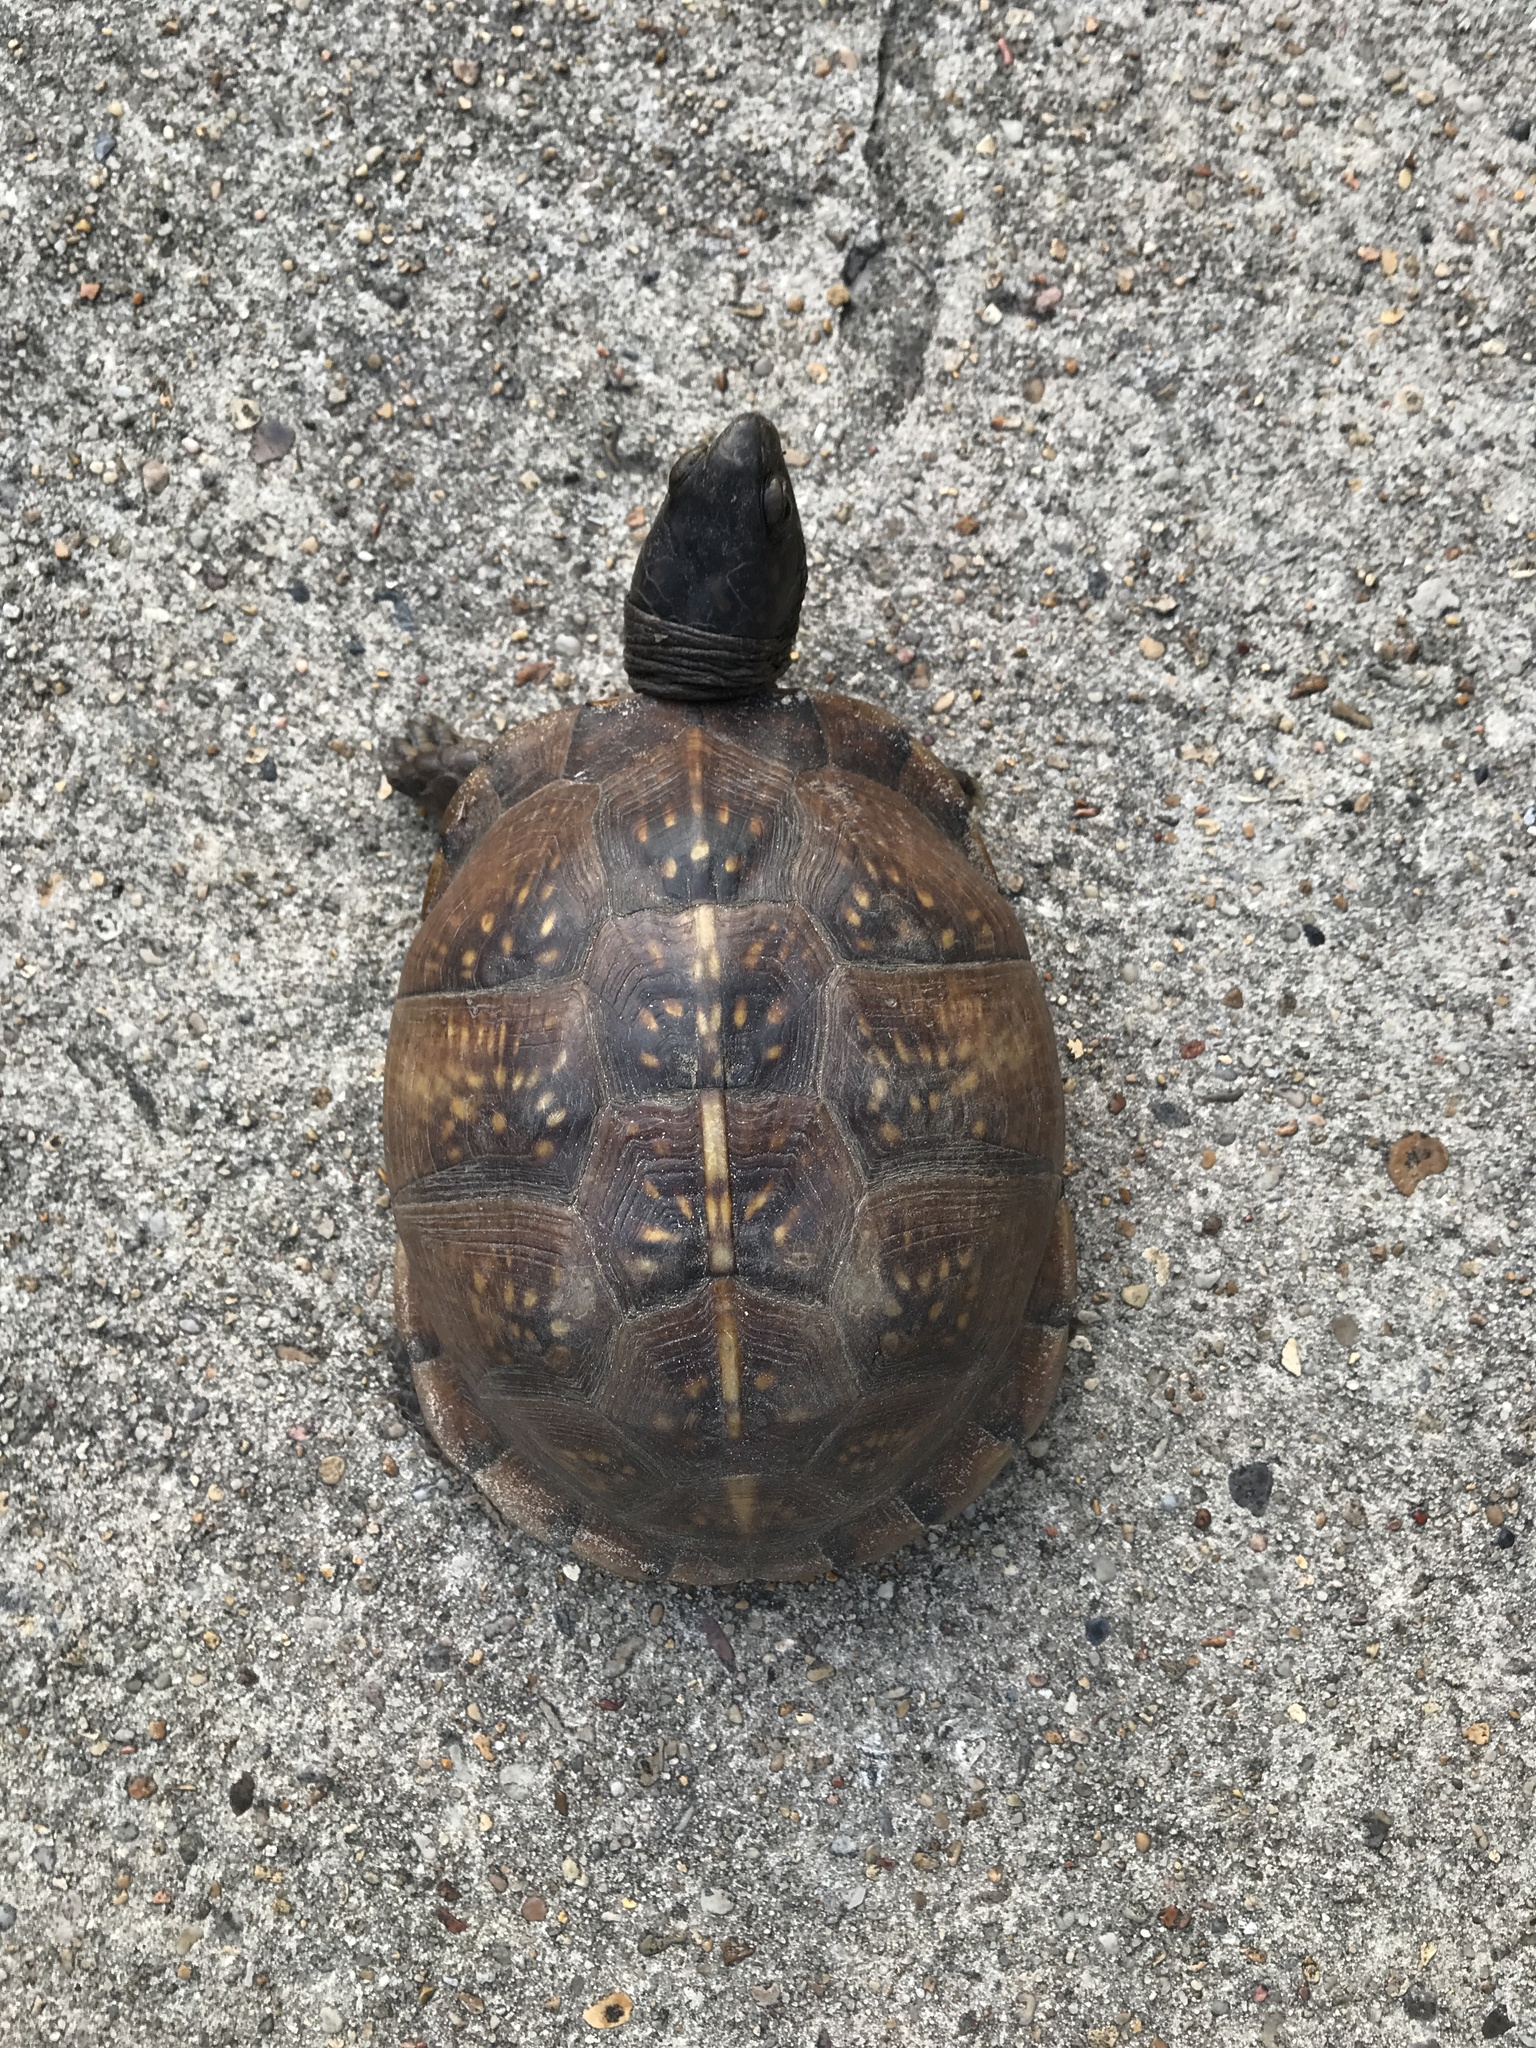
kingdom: Animalia
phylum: Chordata
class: Testudines
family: Emydidae
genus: Terrapene
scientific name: Terrapene carolina
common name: Common box turtle
